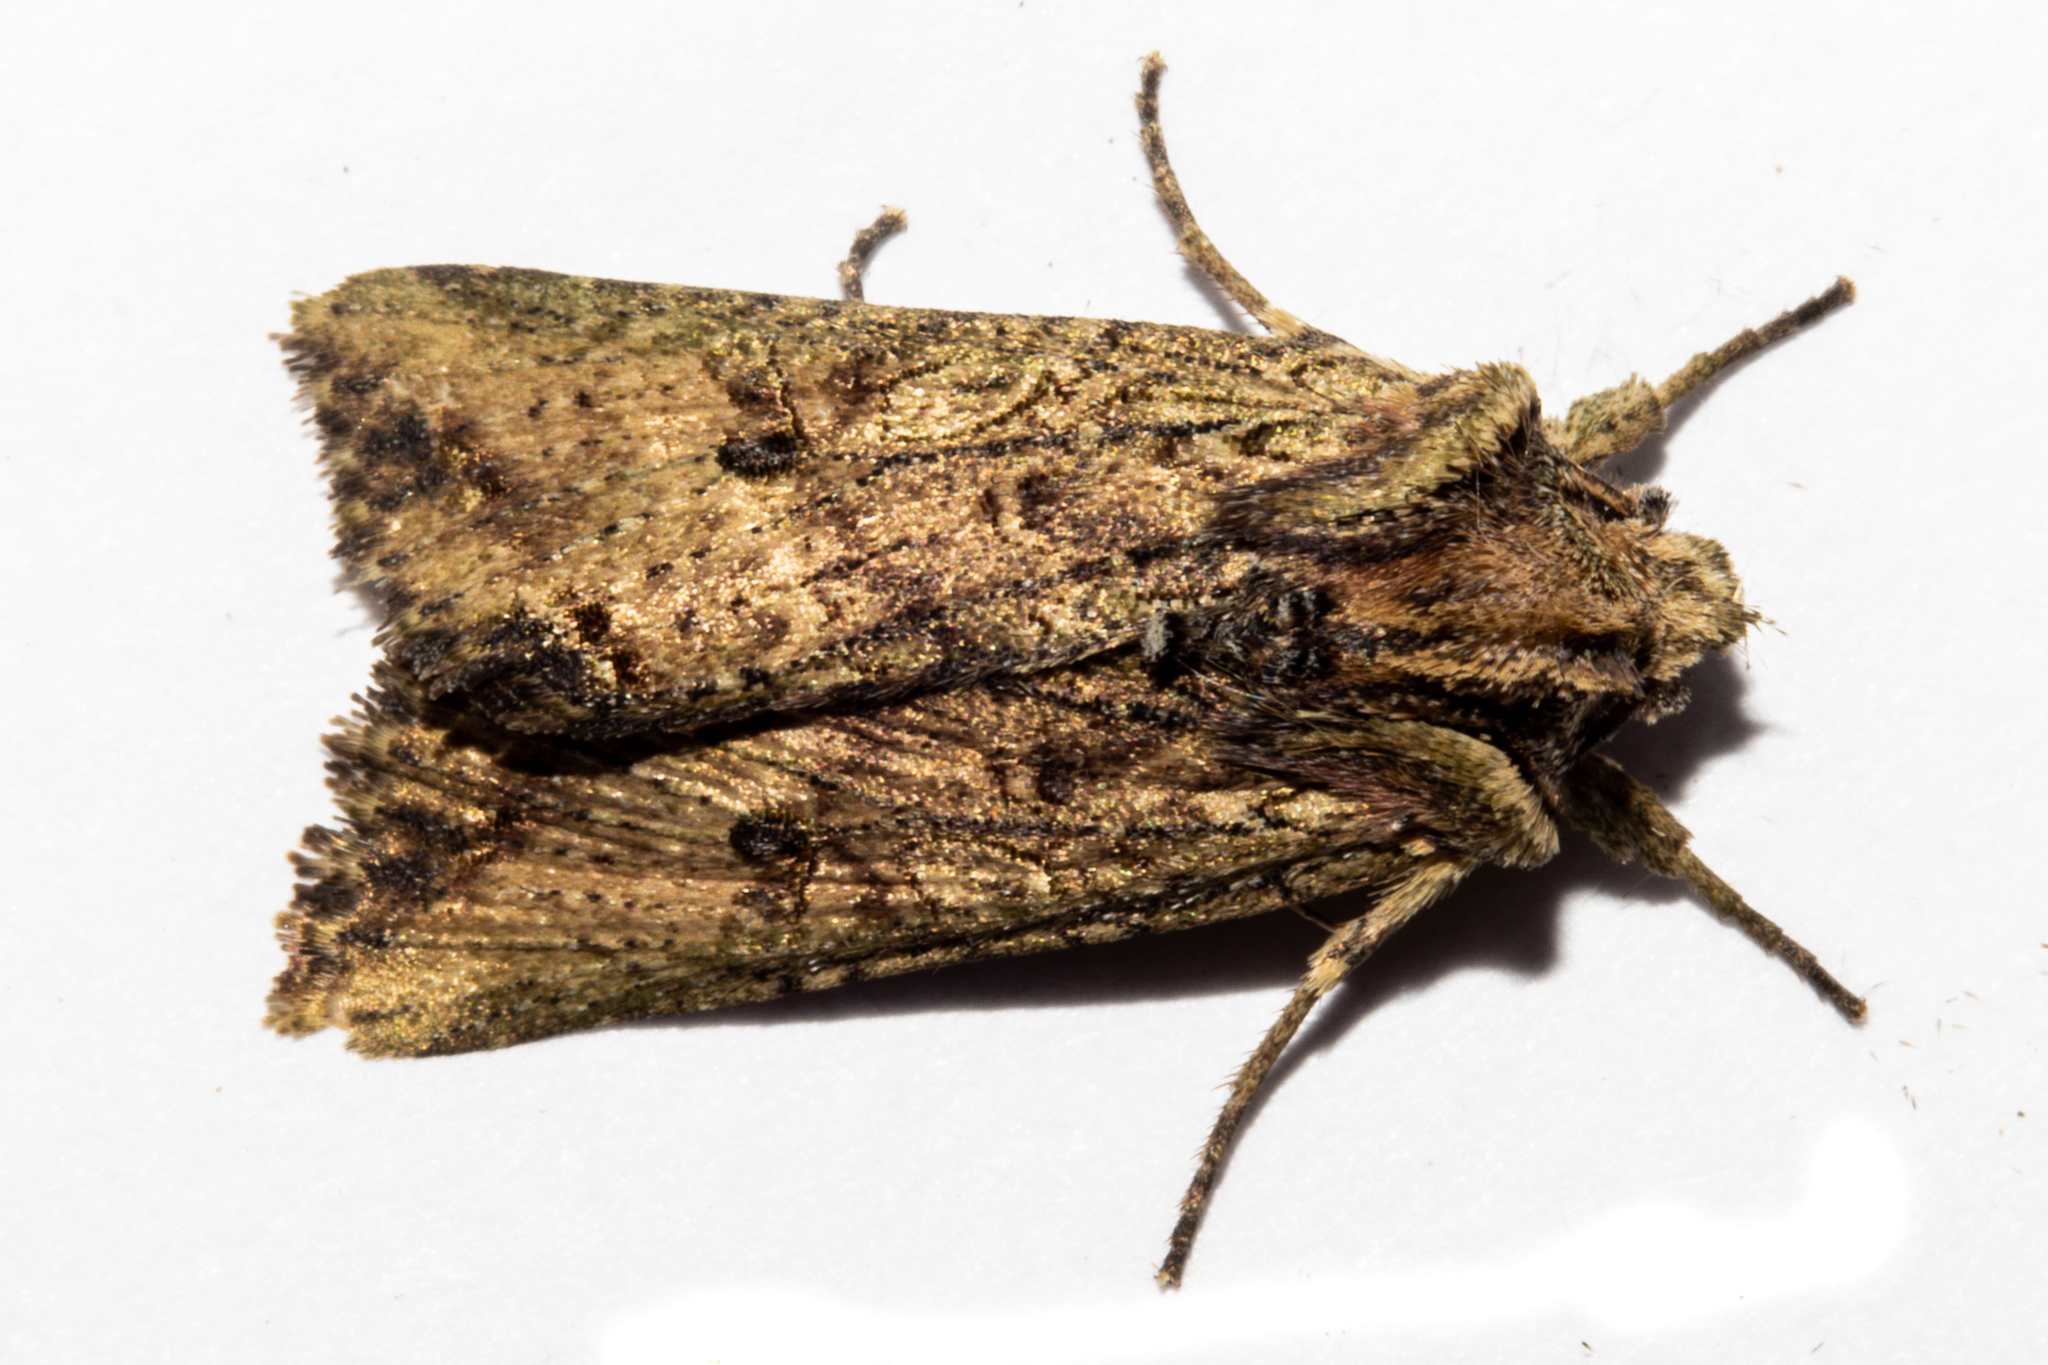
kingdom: Animalia
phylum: Arthropoda
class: Insecta
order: Lepidoptera
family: Noctuidae
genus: Meterana
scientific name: Meterana coeleno
